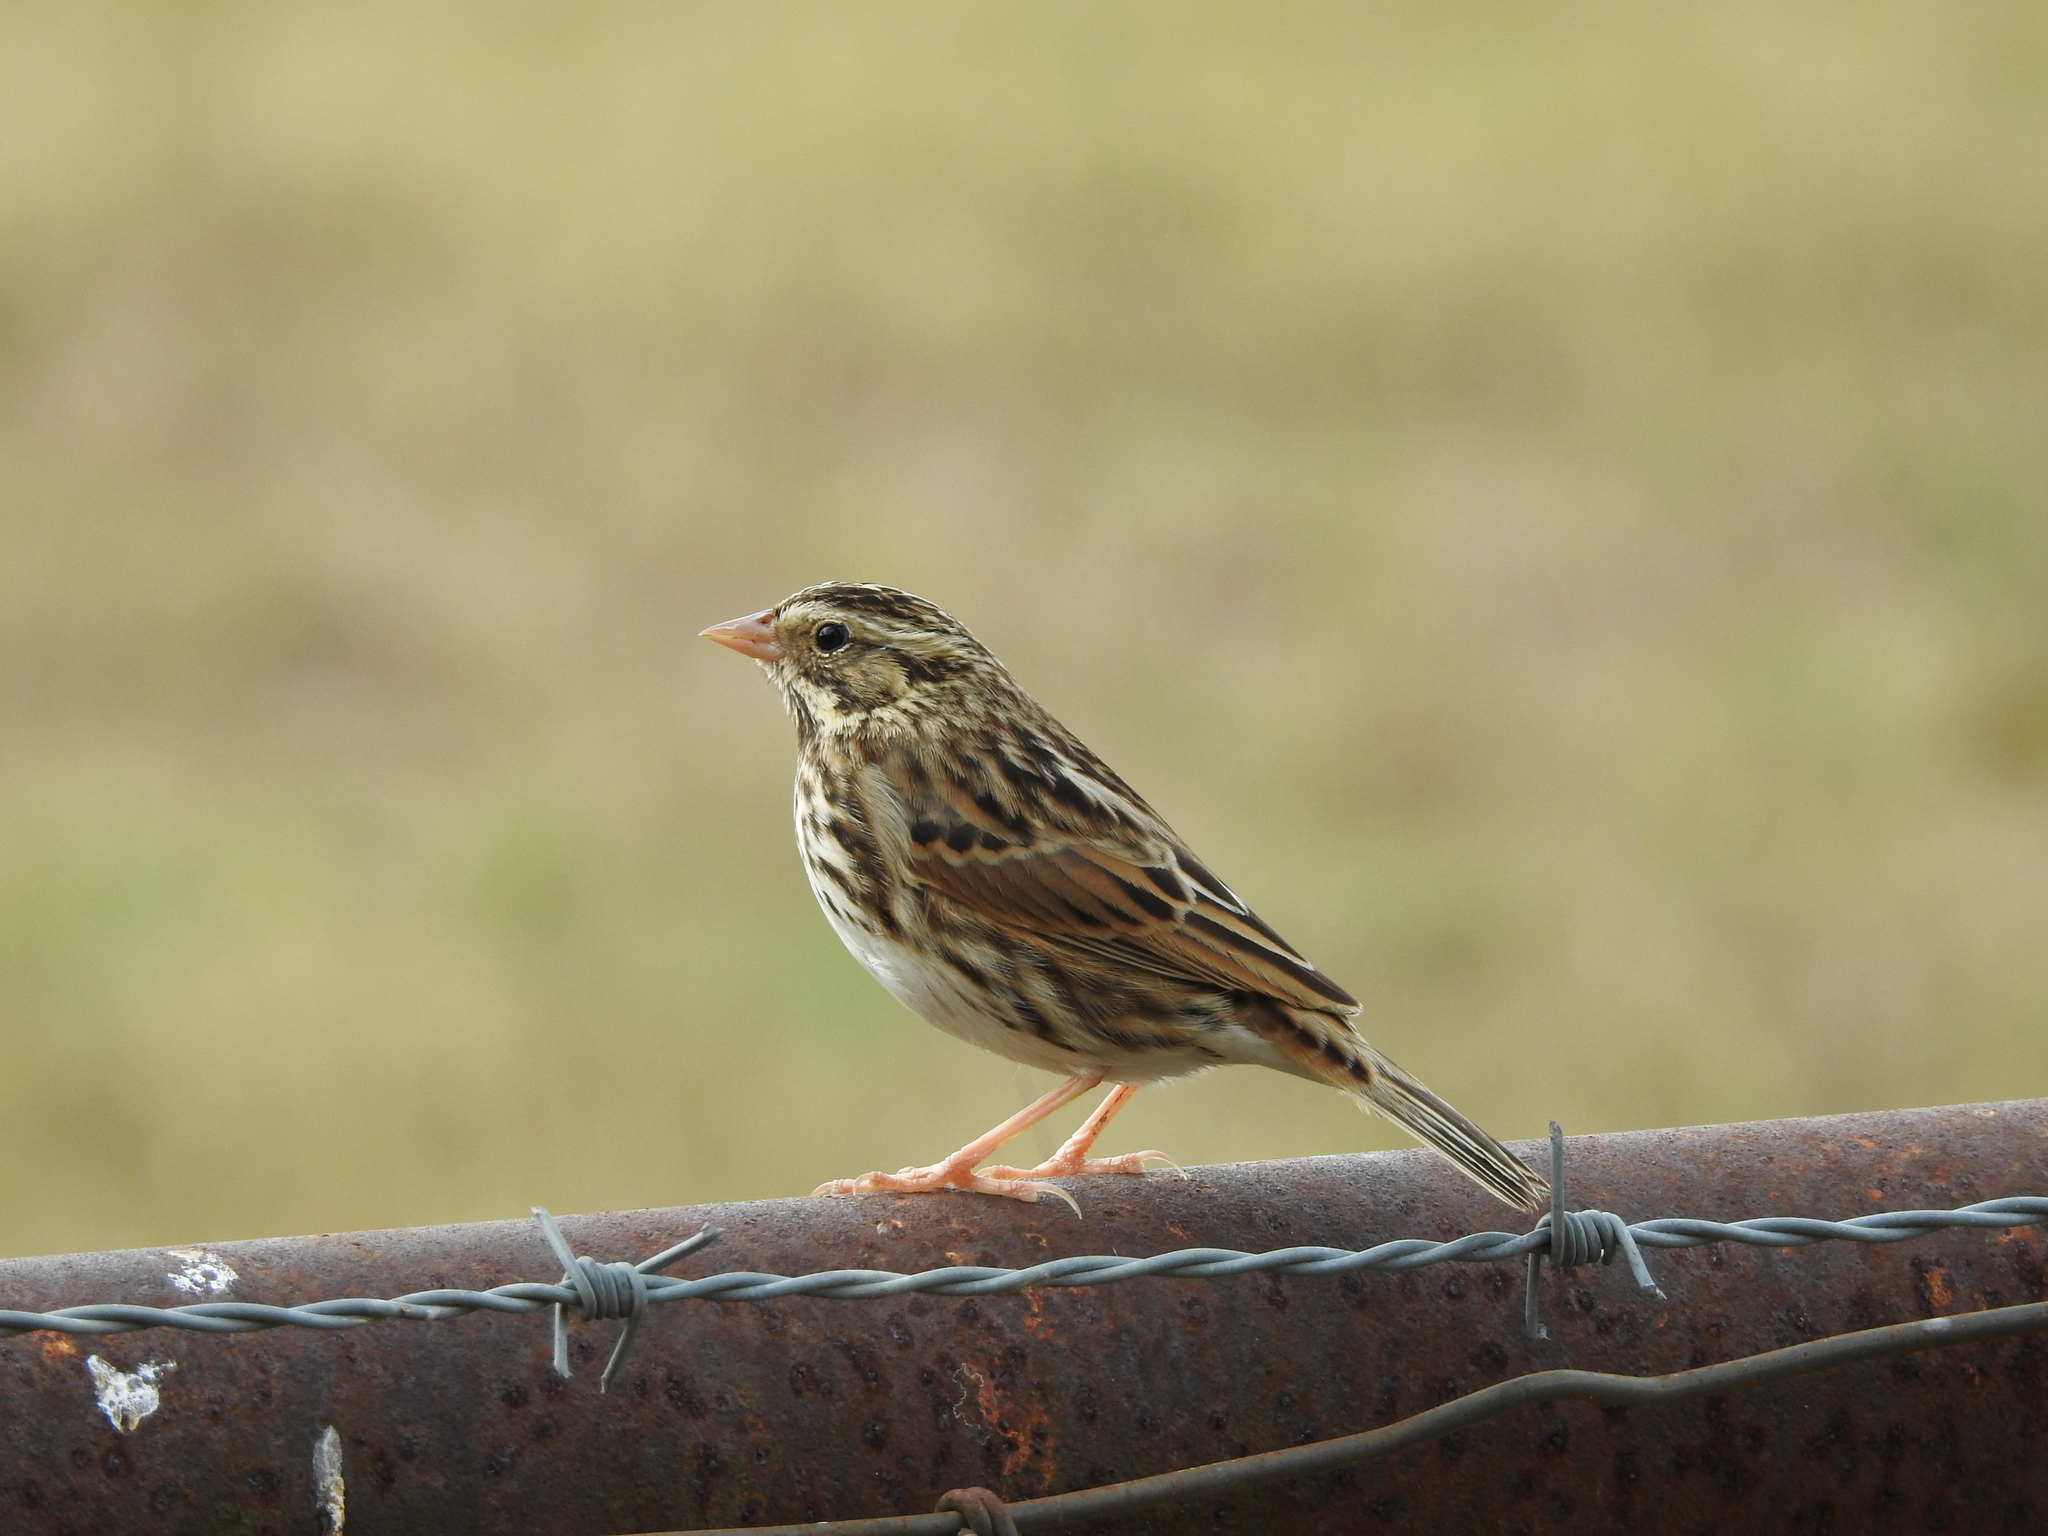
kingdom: Animalia
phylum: Chordata
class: Aves
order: Passeriformes
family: Passerellidae
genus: Passerculus
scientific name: Passerculus sandwichensis
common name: Savannah sparrow
